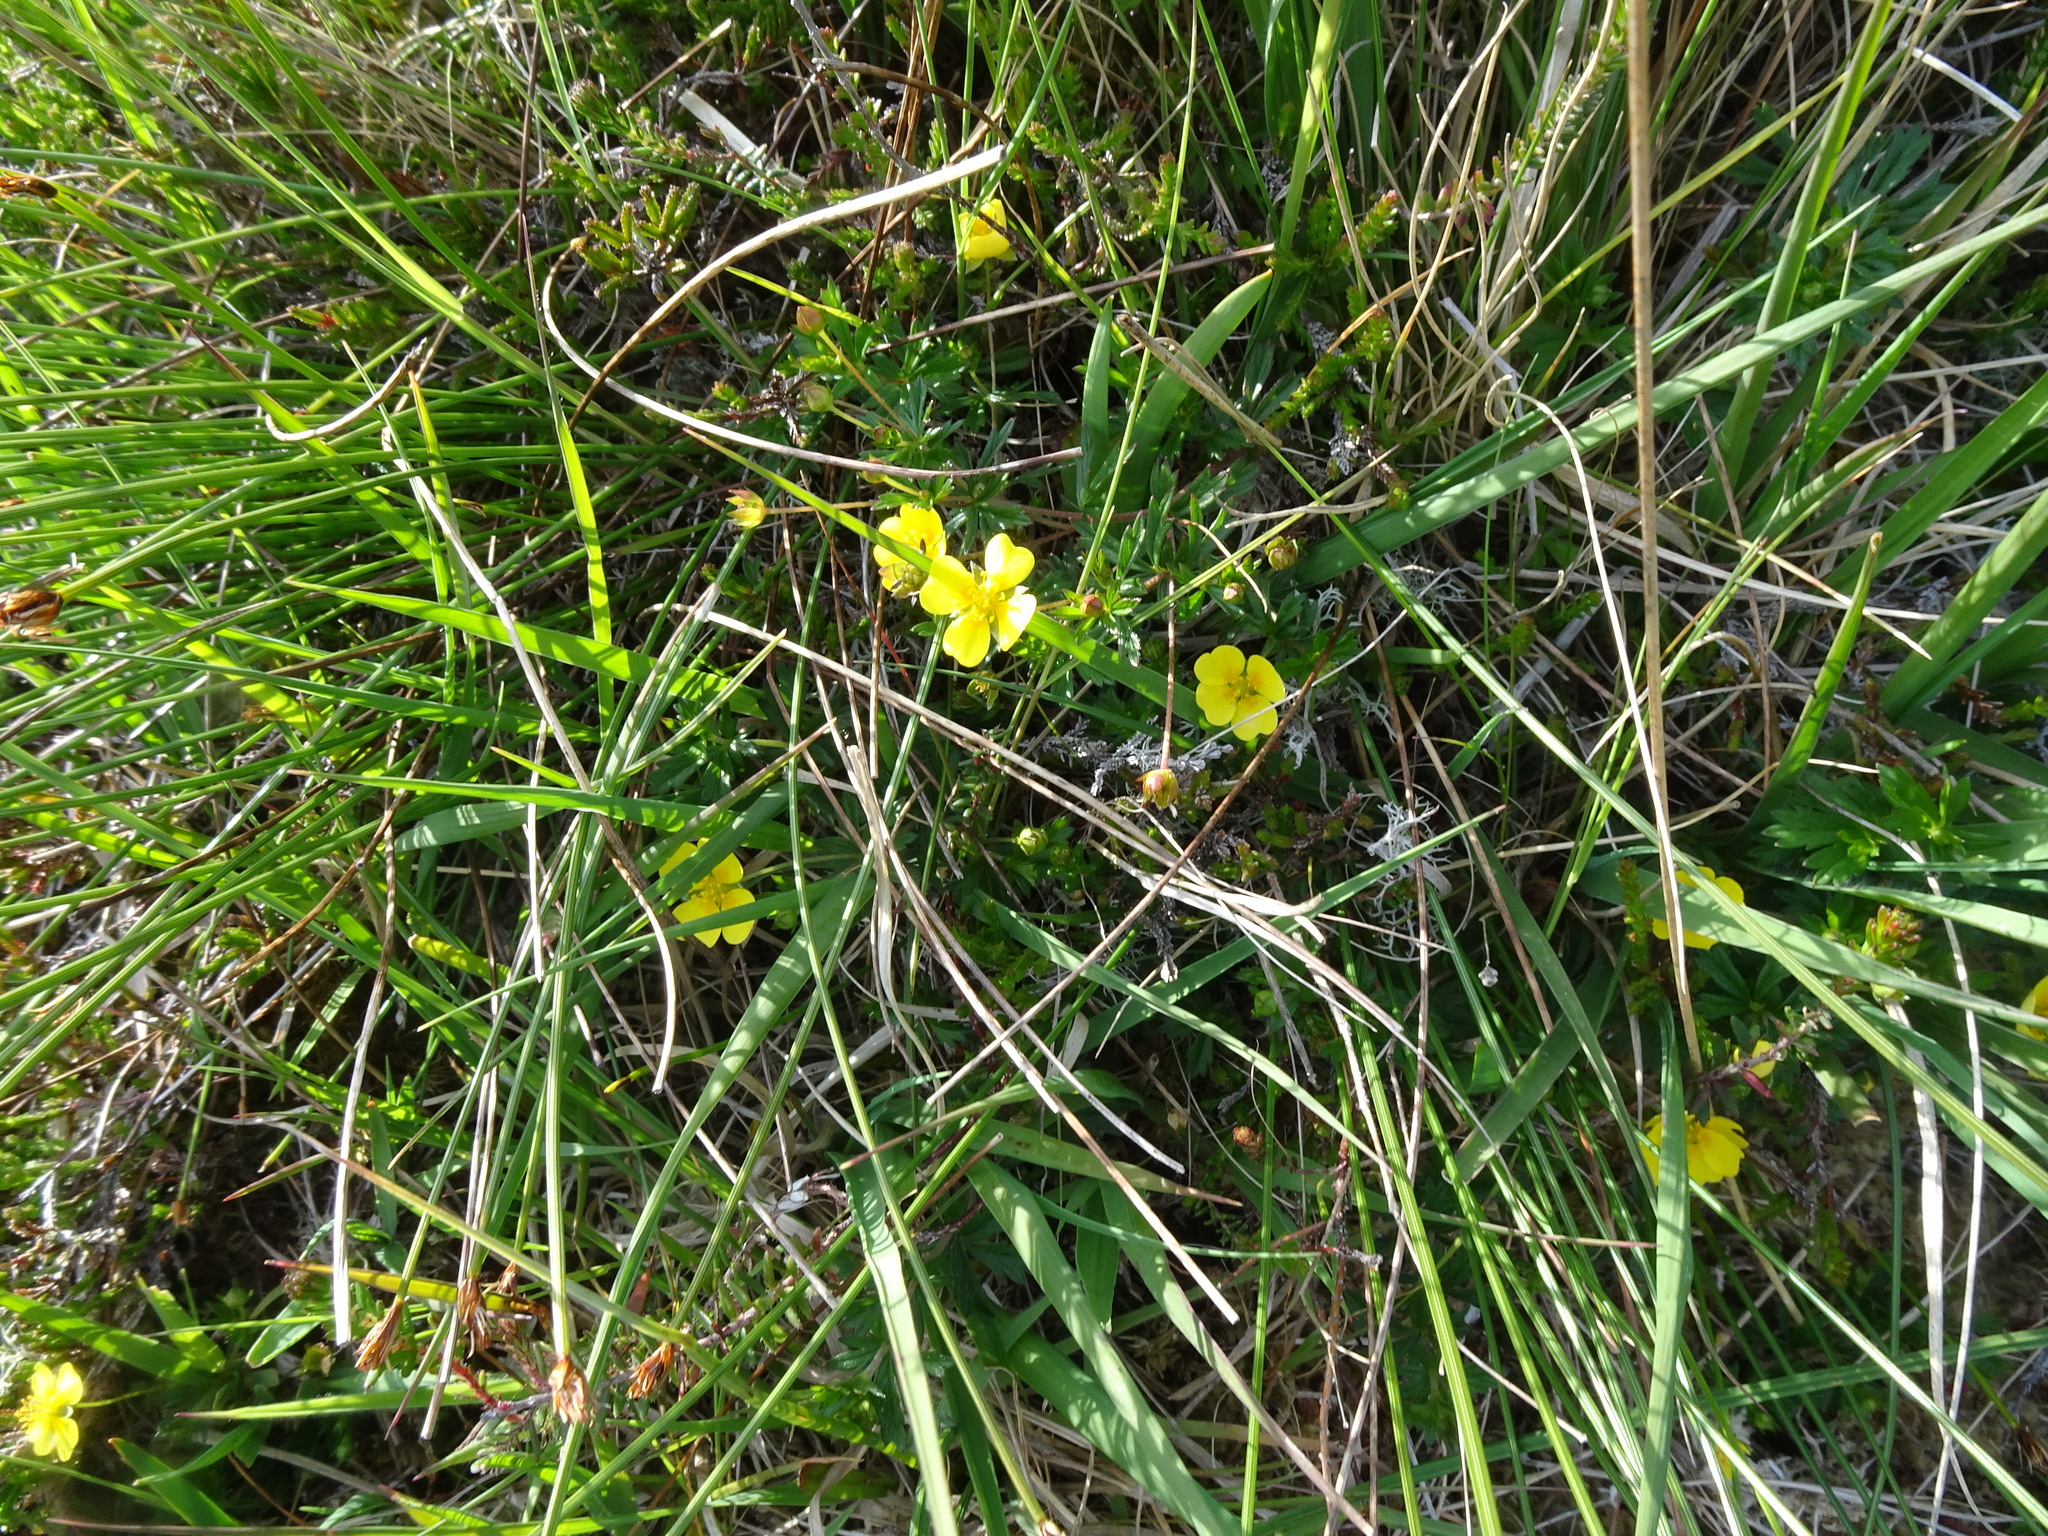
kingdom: Plantae
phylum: Tracheophyta
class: Magnoliopsida
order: Rosales
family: Rosaceae
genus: Potentilla
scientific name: Potentilla erecta
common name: Tormentil
